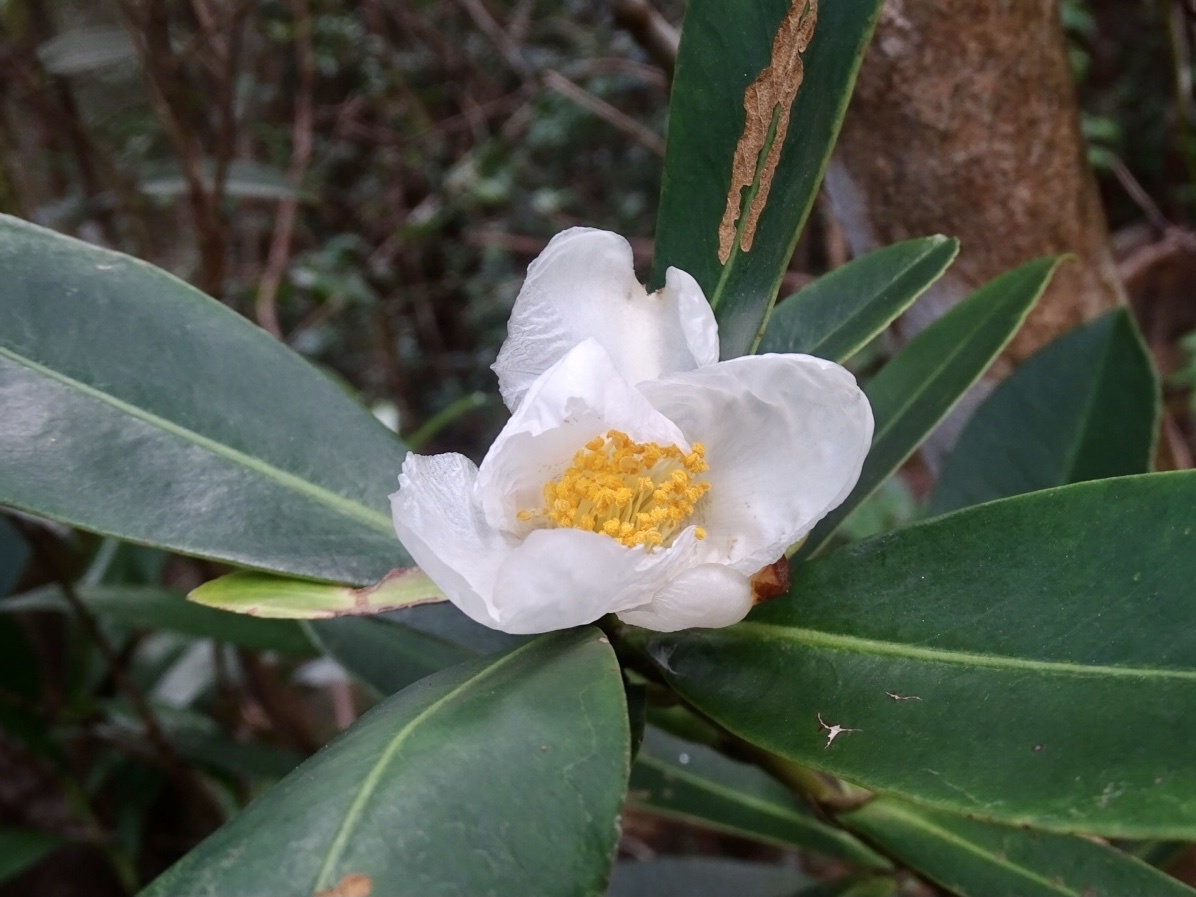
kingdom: Plantae
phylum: Tracheophyta
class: Magnoliopsida
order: Ericales
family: Theaceae
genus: Polyspora
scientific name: Polyspora axillaris
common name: Fried egg tree
